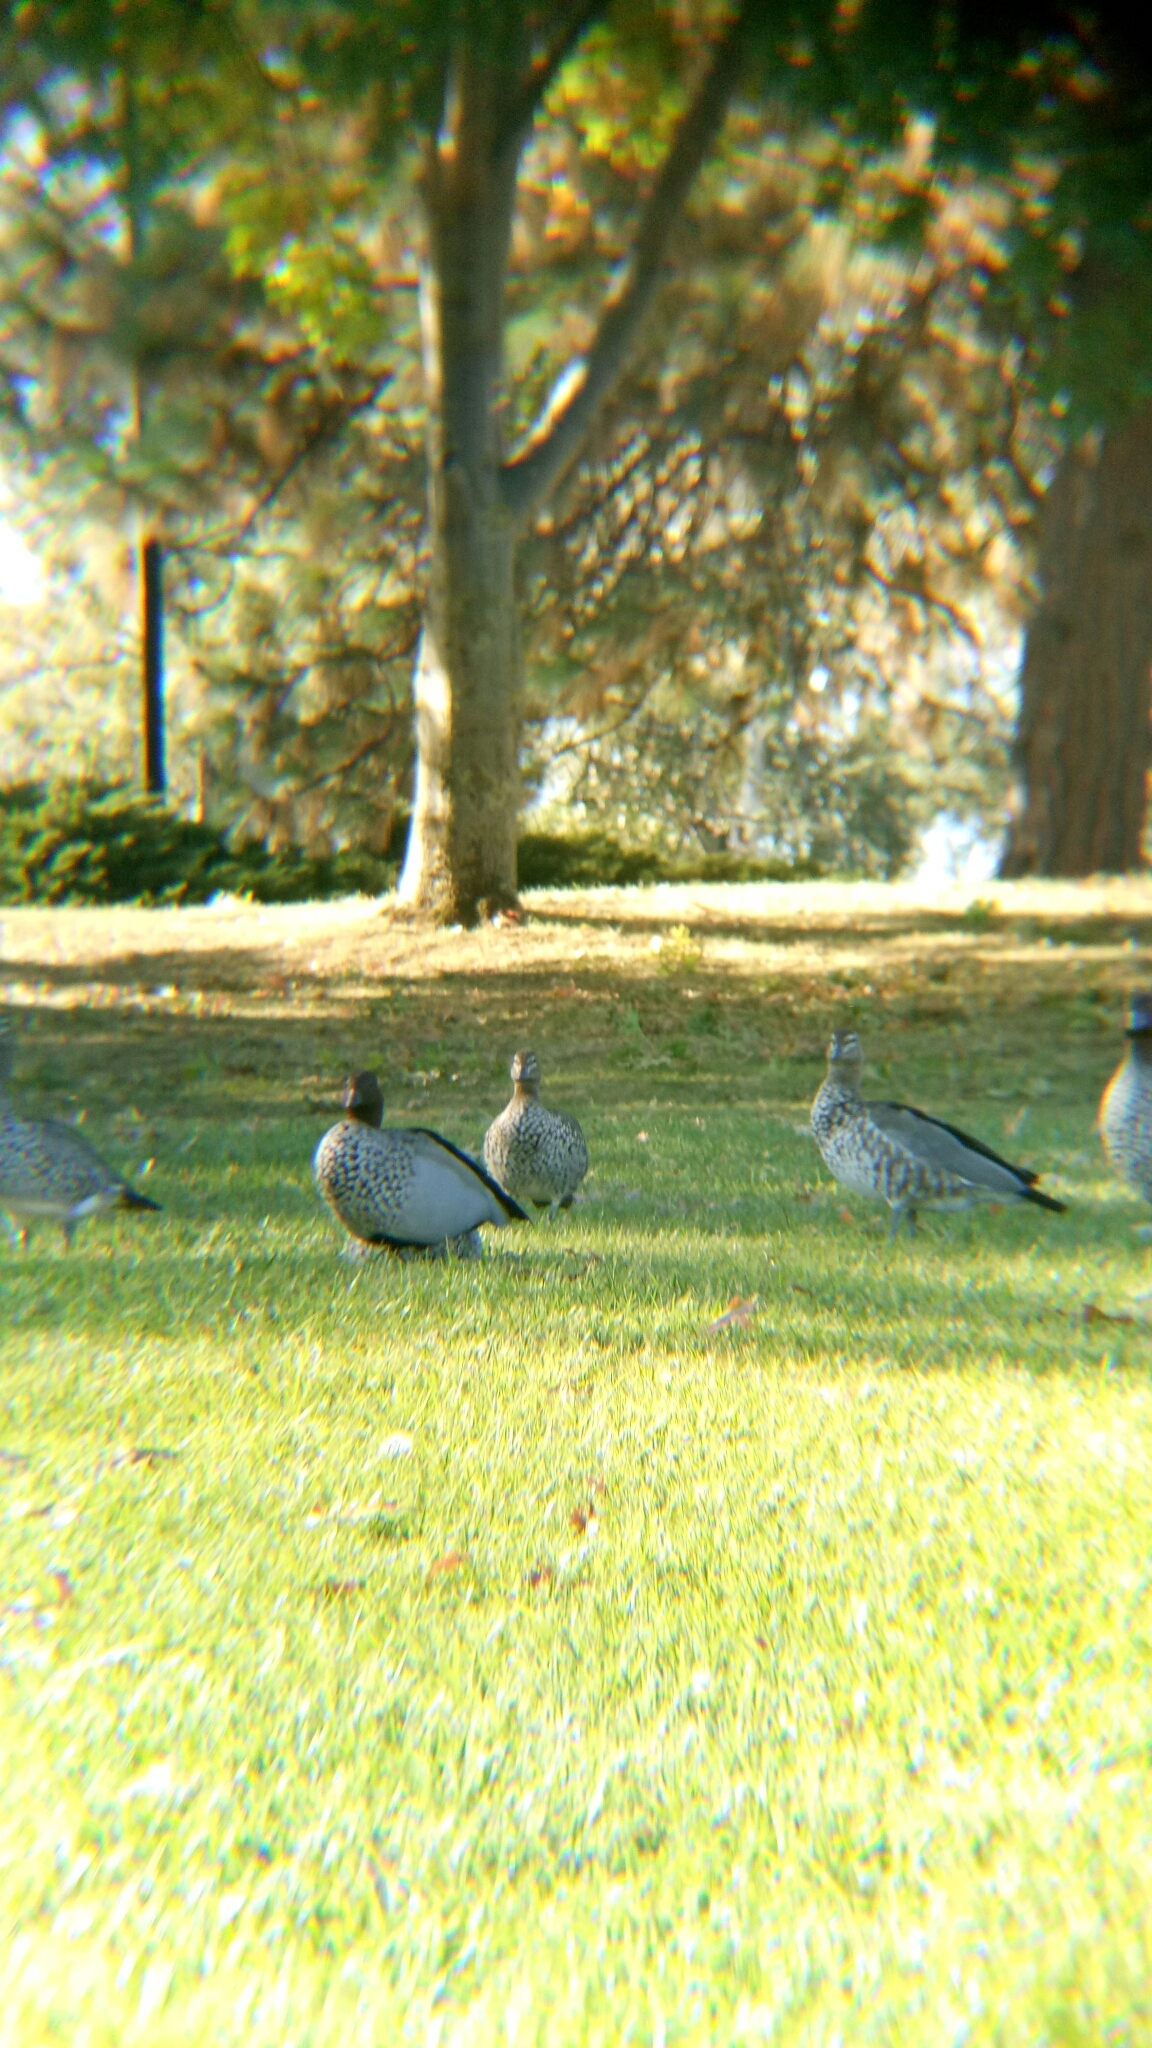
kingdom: Animalia
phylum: Chordata
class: Aves
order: Anseriformes
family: Anatidae
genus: Chenonetta
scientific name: Chenonetta jubata
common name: Maned duck
